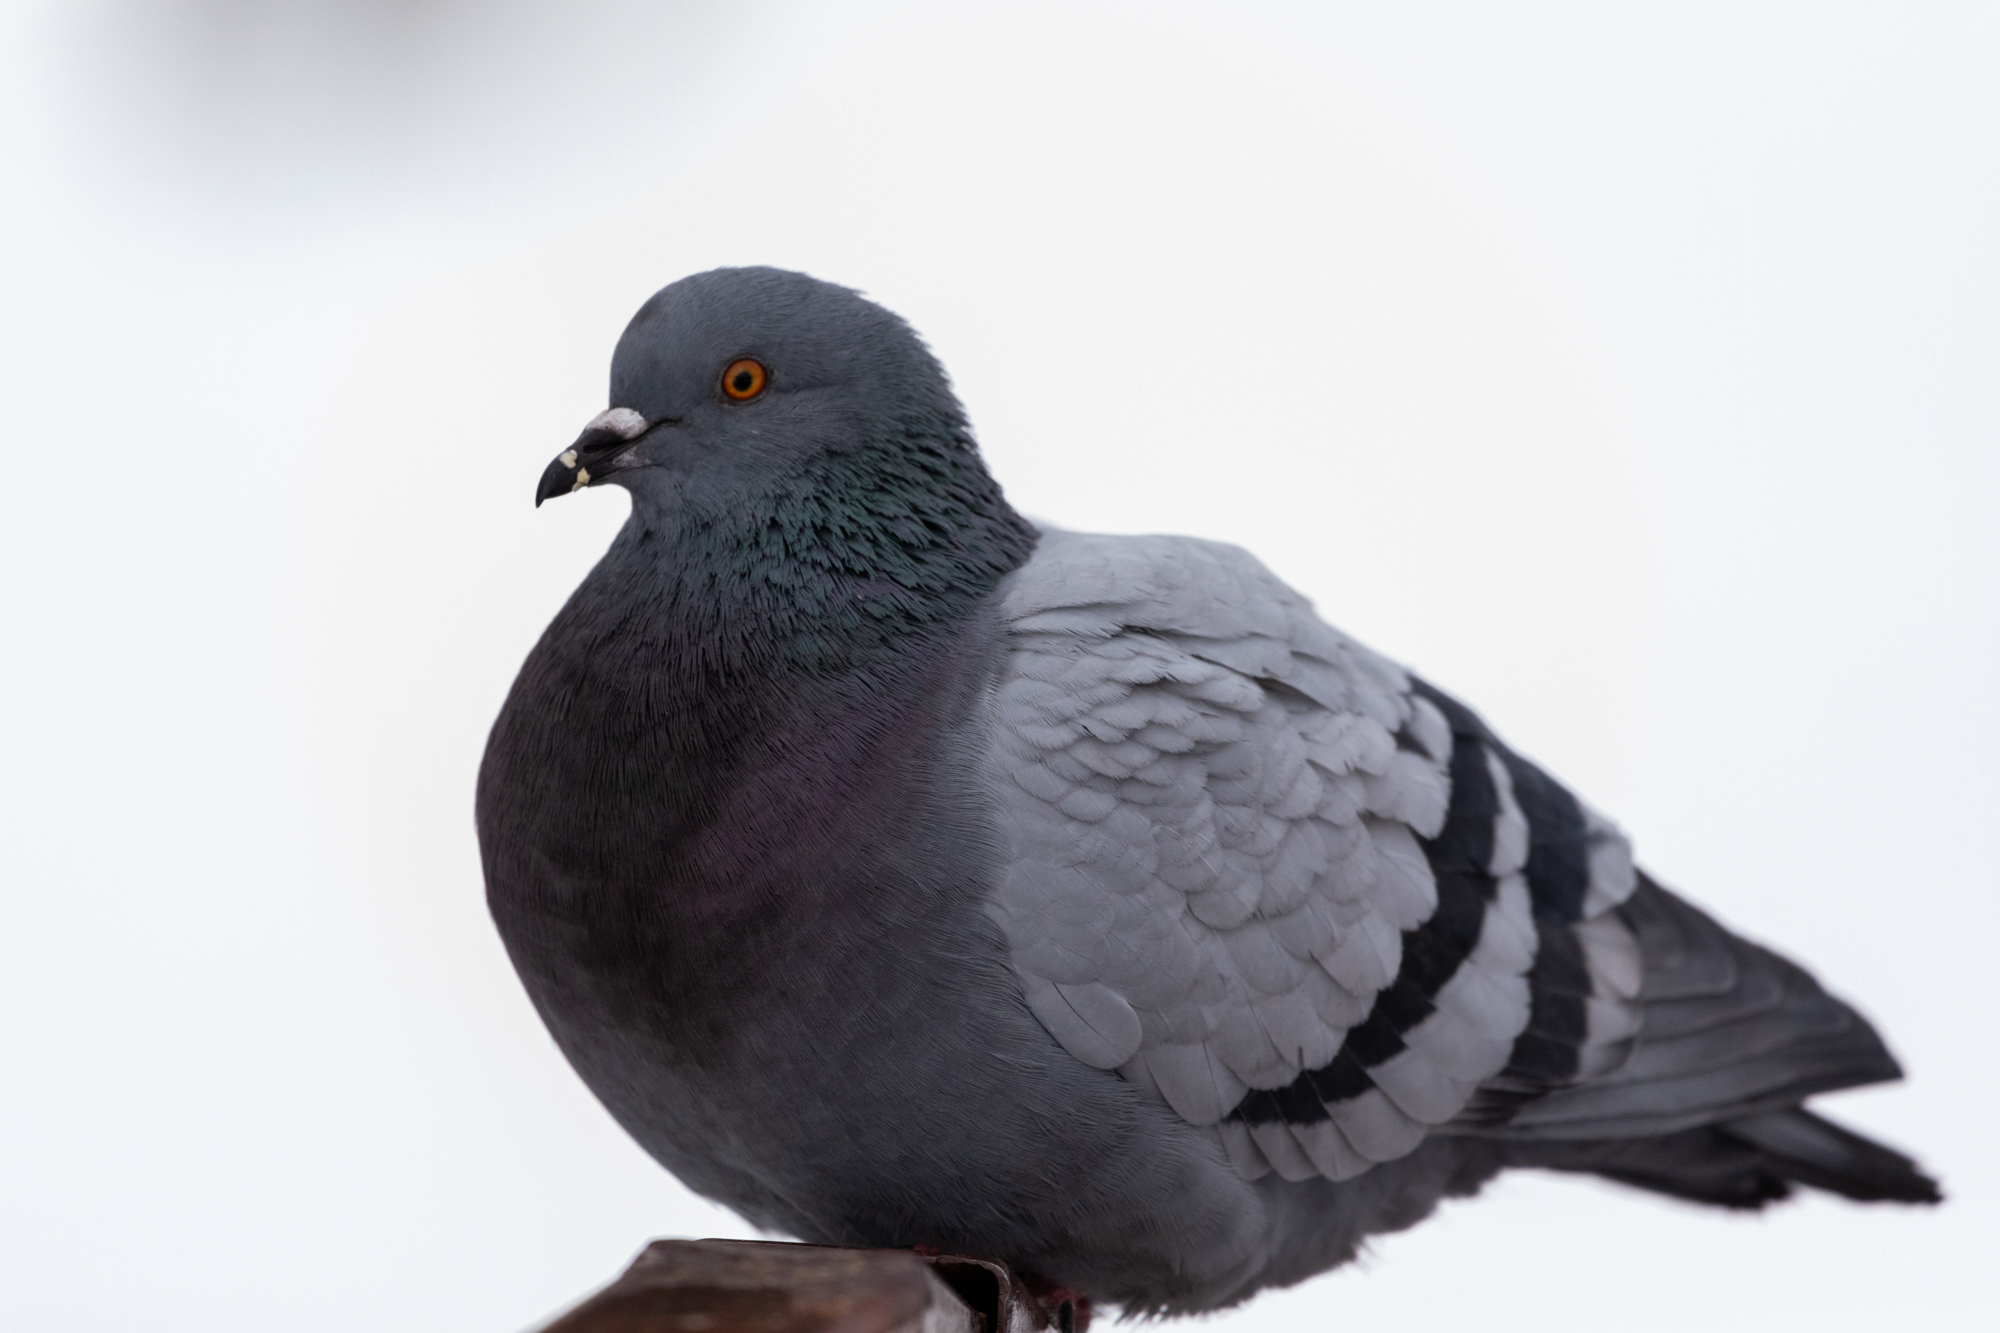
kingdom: Animalia
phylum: Chordata
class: Aves
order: Columbiformes
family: Columbidae
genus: Columba
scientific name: Columba livia
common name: Rock pigeon
